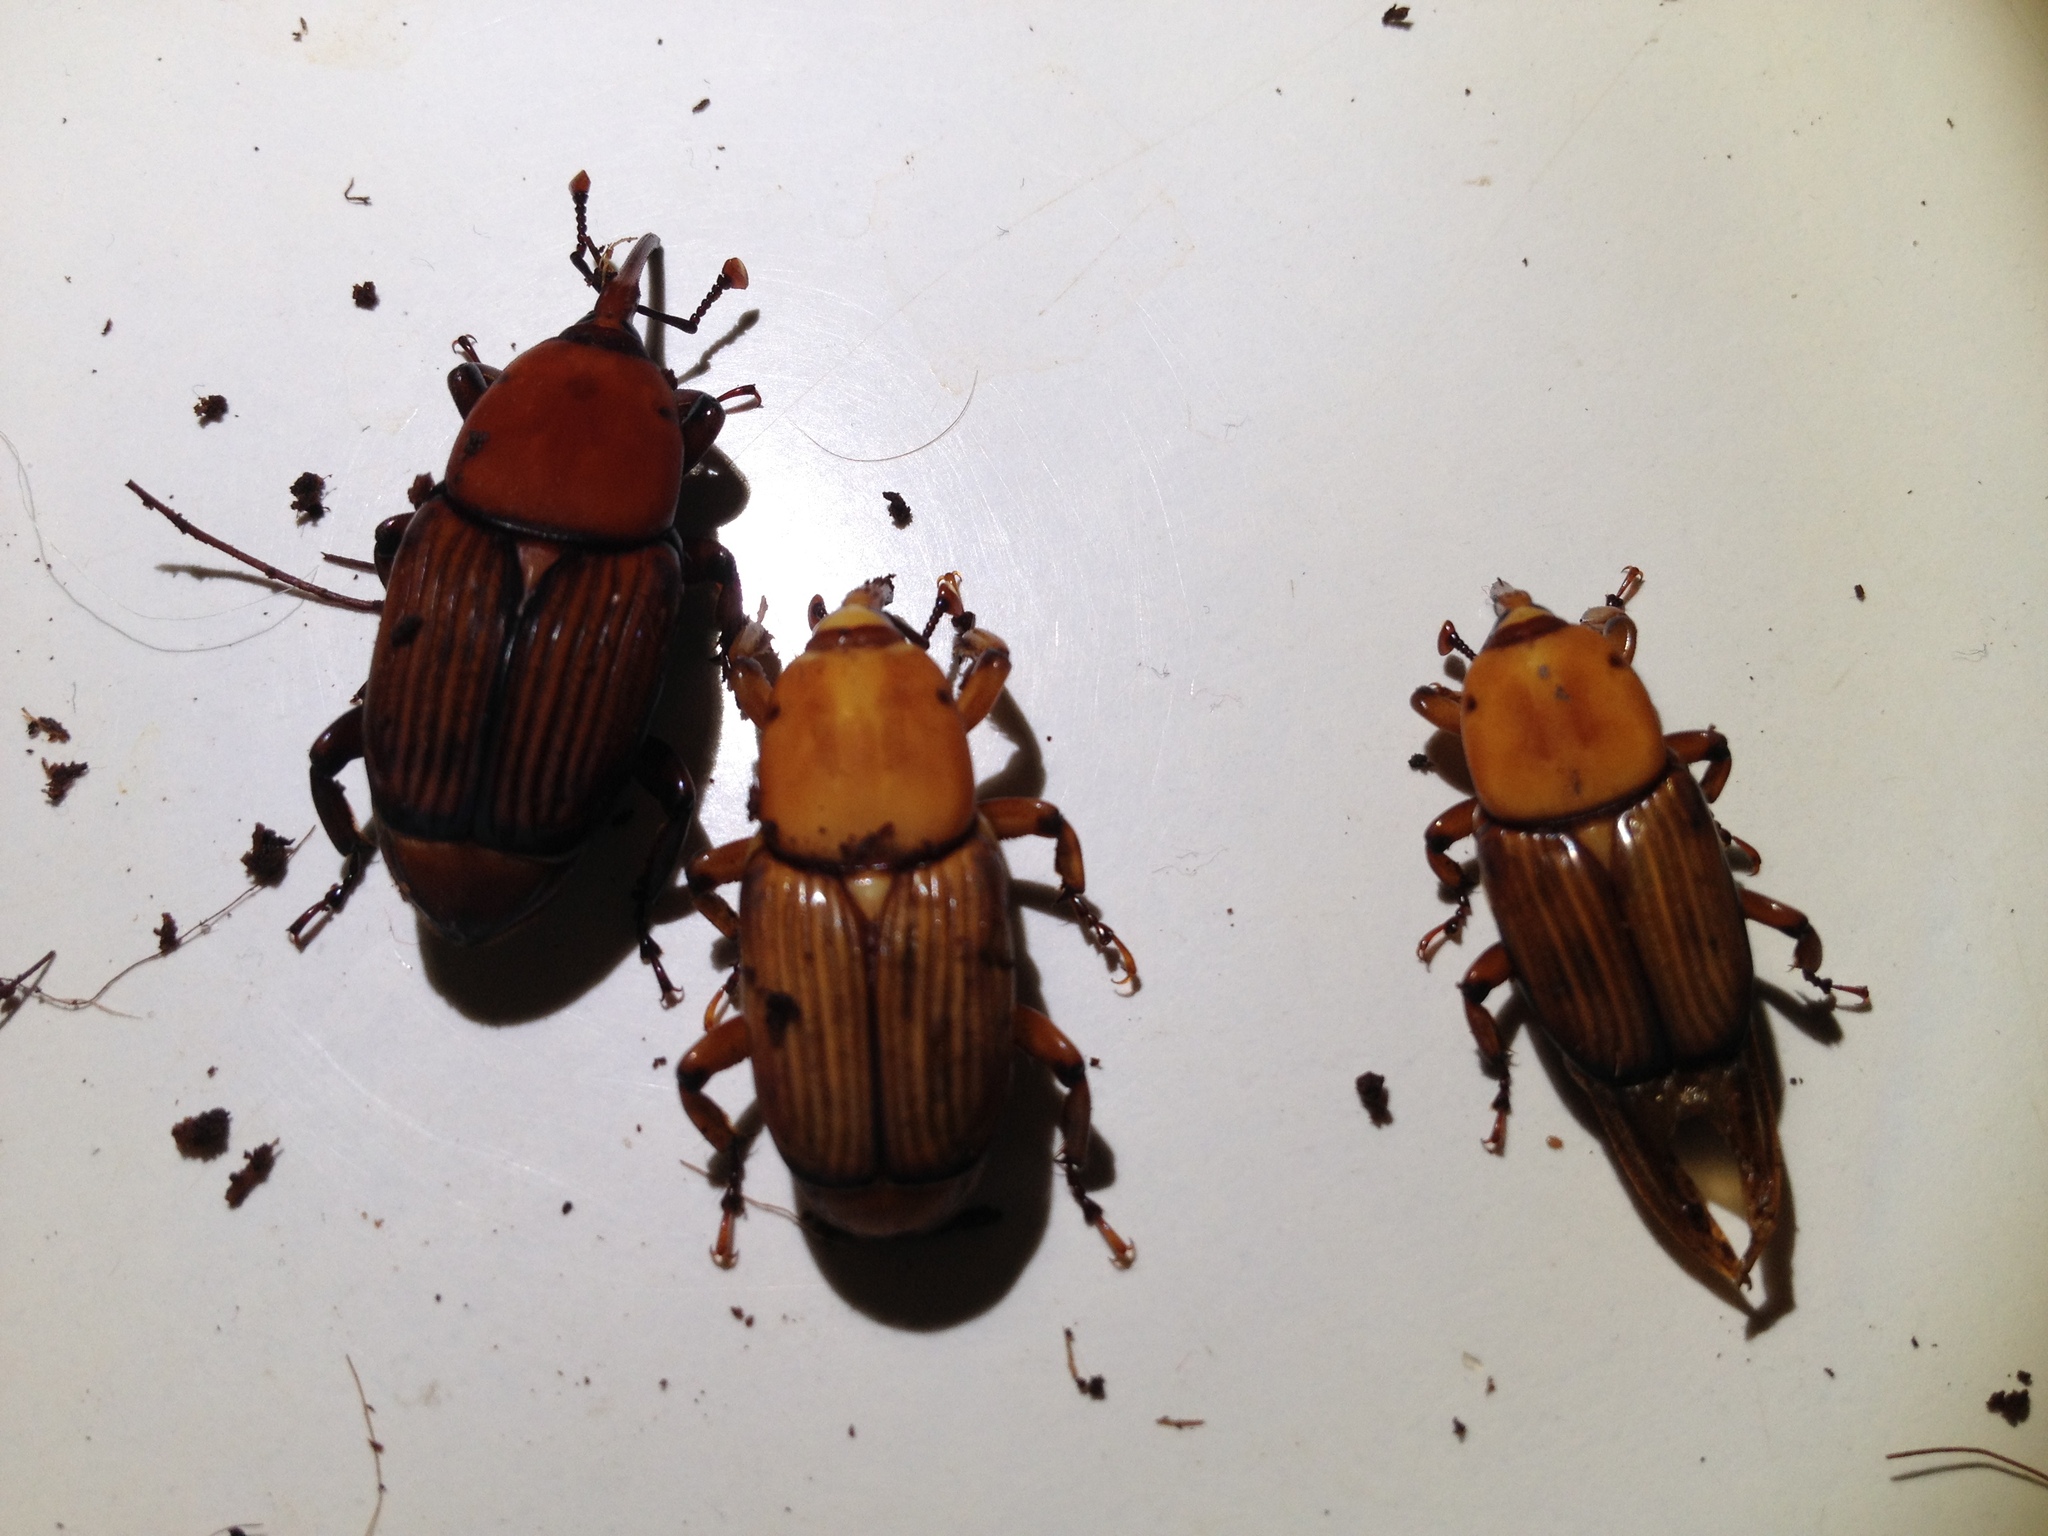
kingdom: Animalia
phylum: Arthropoda
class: Insecta
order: Coleoptera
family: Dryophthoridae
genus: Rhynchophorus
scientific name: Rhynchophorus ferrugineus
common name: Red palm weevil
